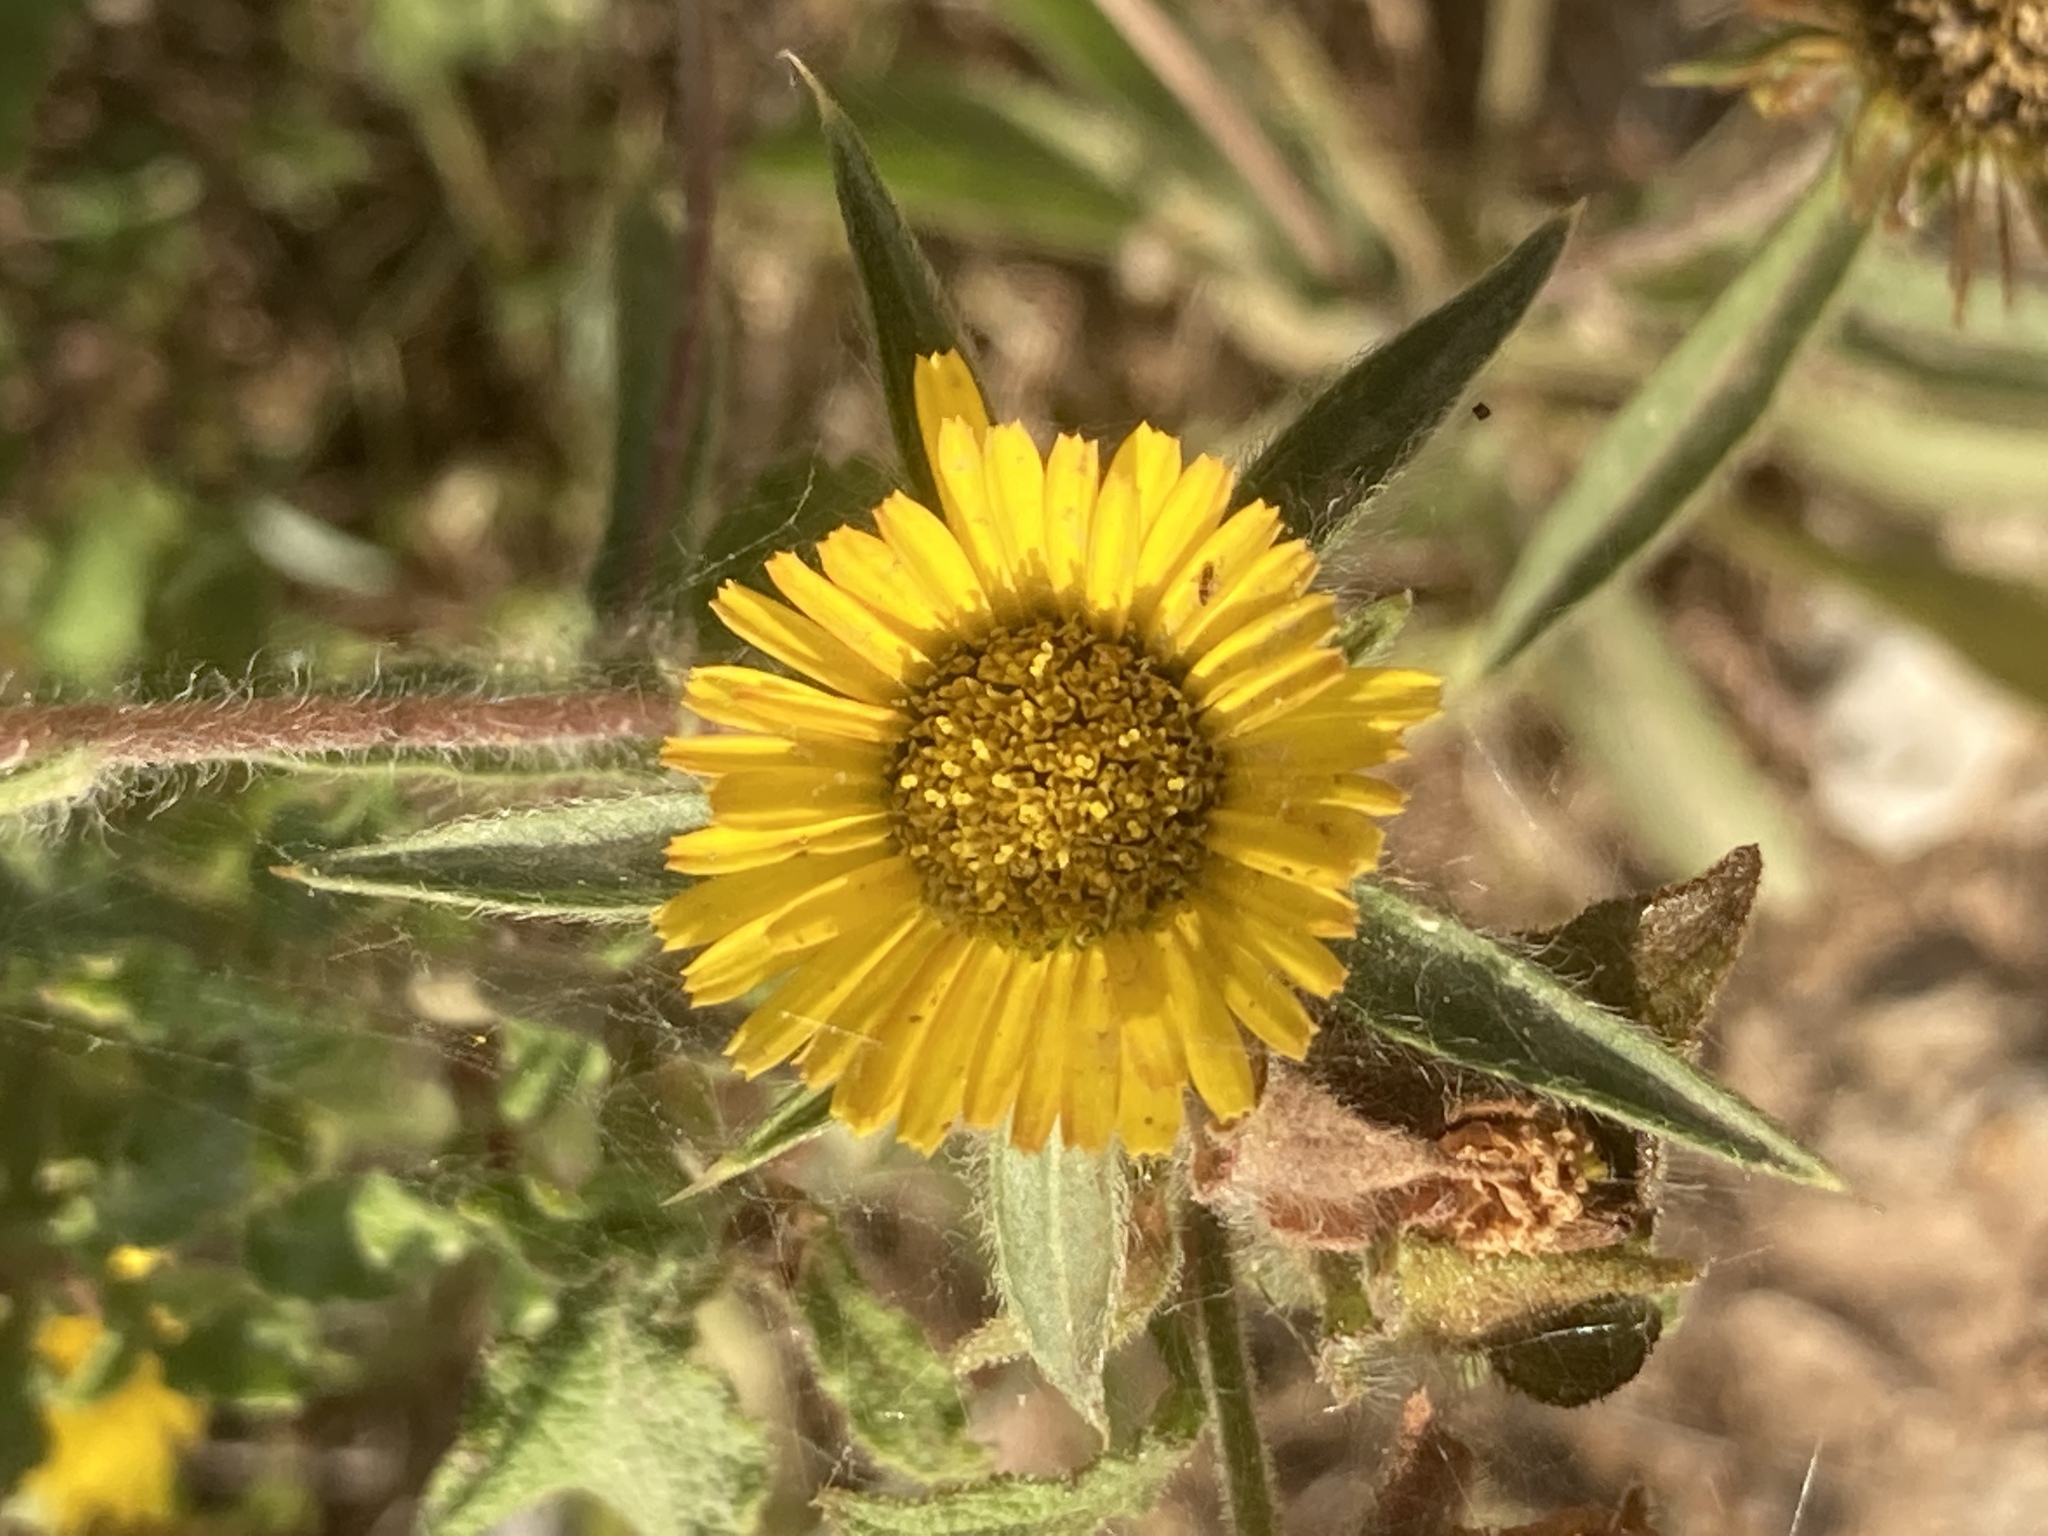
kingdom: Plantae
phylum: Tracheophyta
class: Magnoliopsida
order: Asterales
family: Asteraceae
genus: Pallenis
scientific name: Pallenis spinosa
